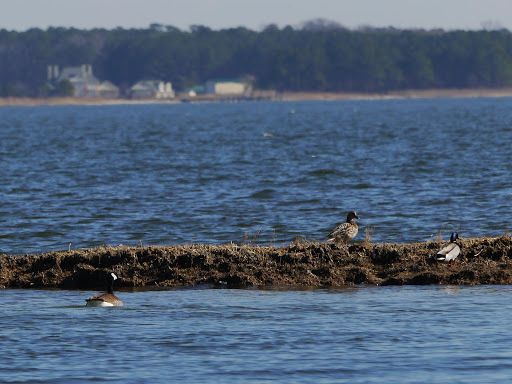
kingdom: Animalia
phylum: Chordata
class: Aves
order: Anseriformes
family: Anatidae
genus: Branta
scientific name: Branta canadensis
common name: Canada goose
